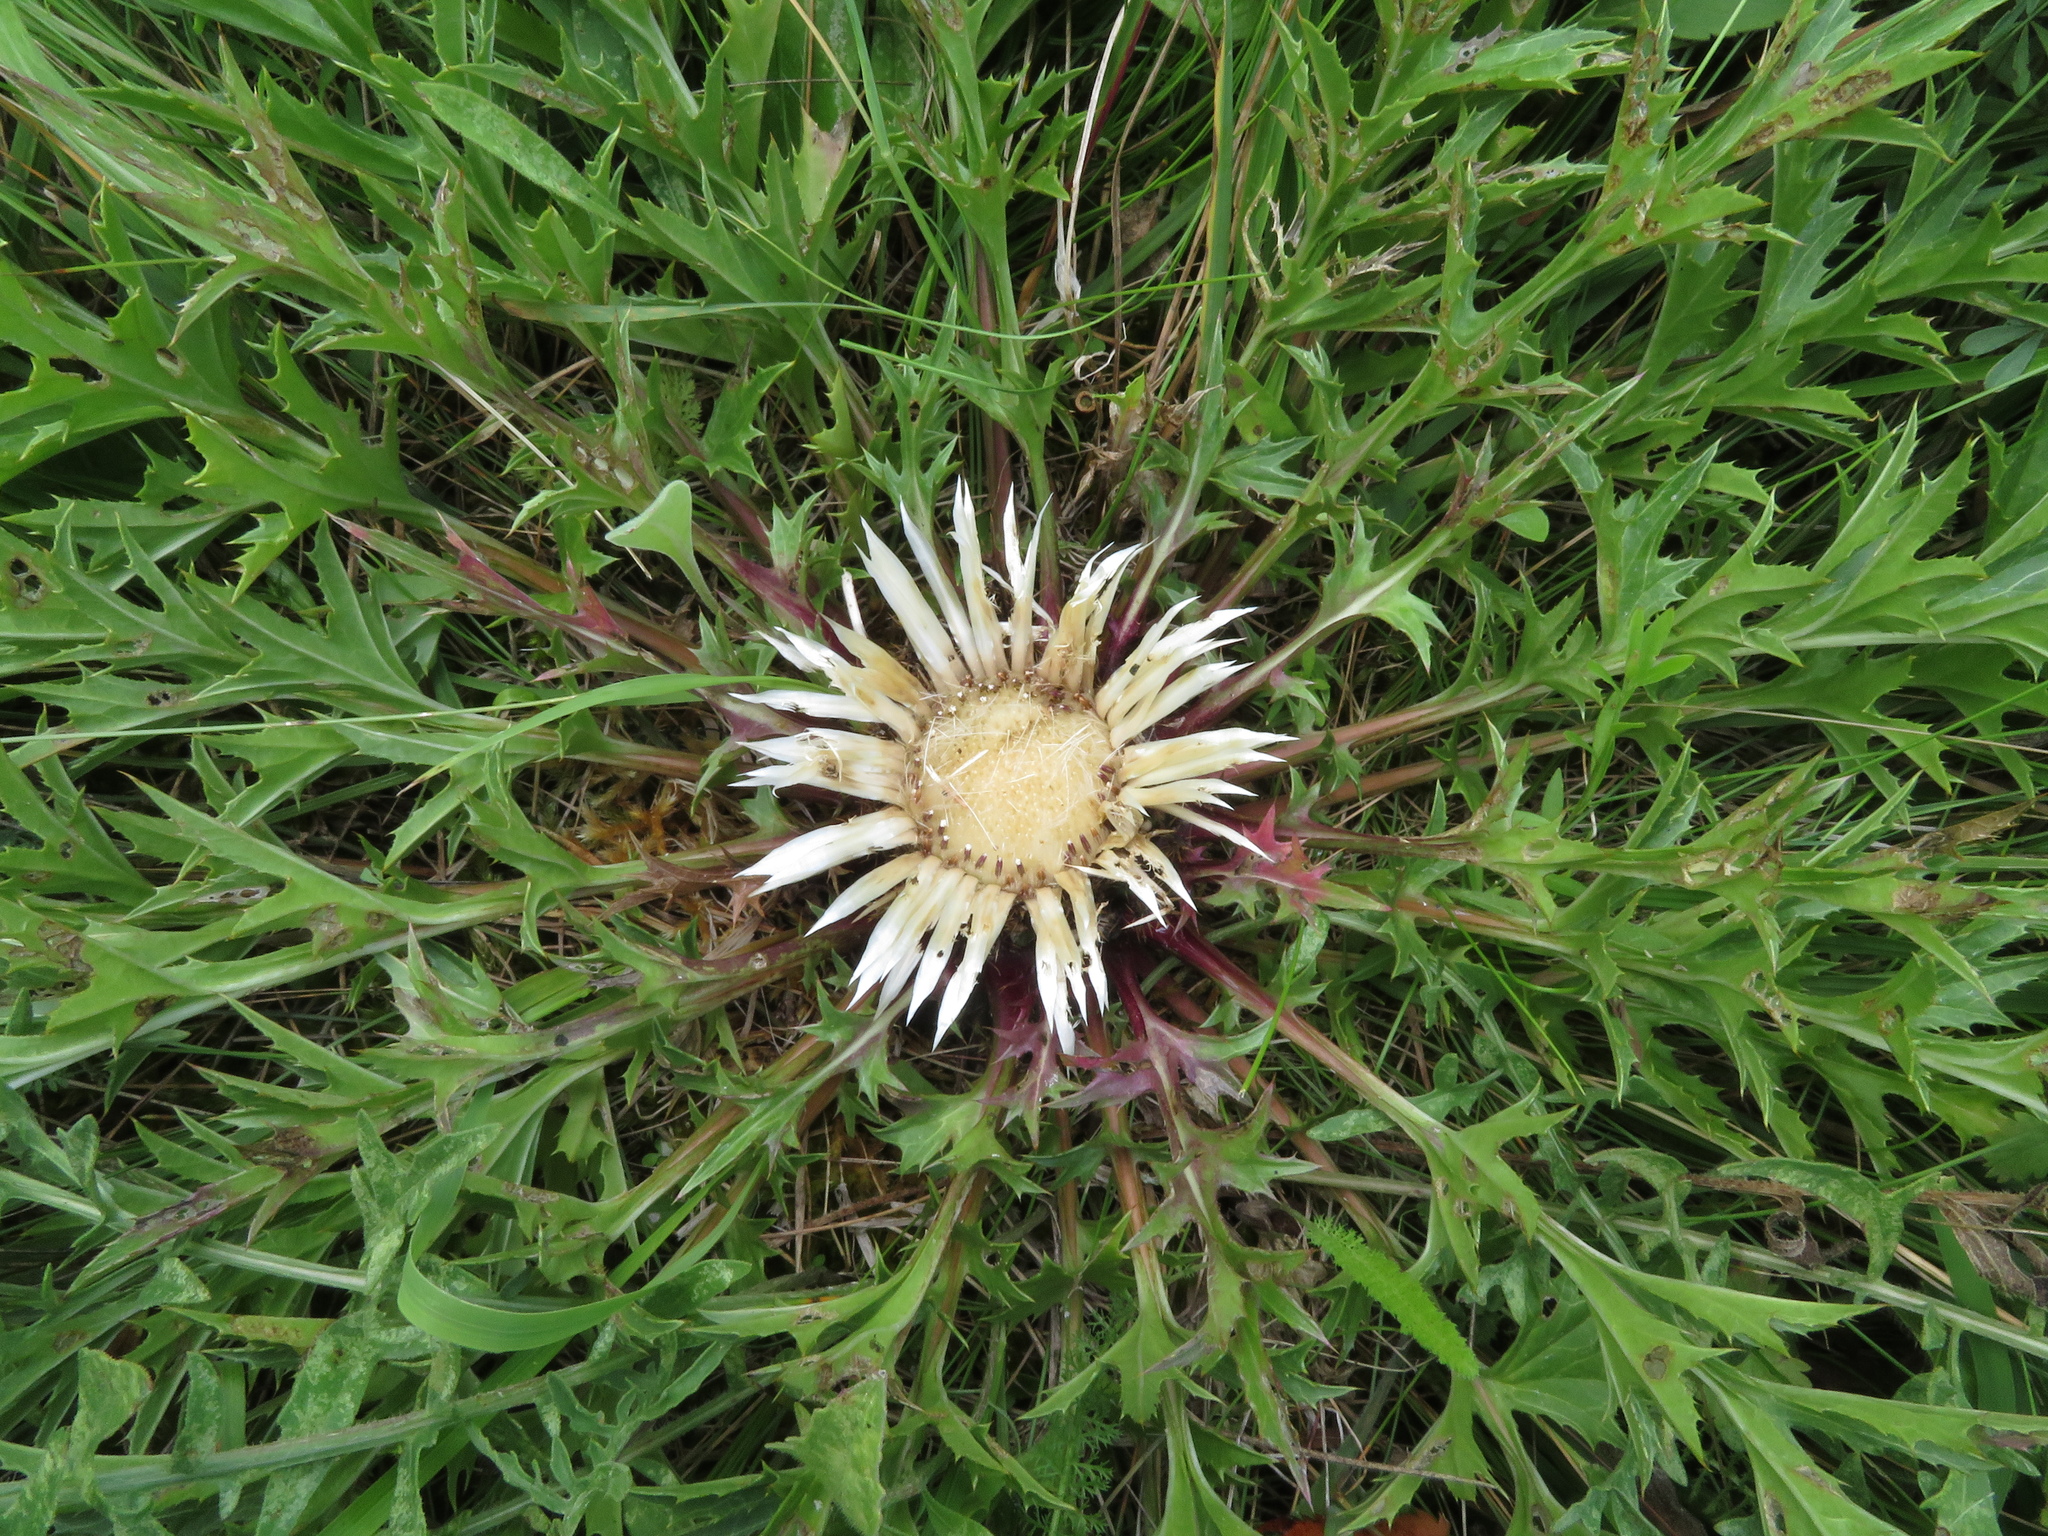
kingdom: Plantae
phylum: Tracheophyta
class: Magnoliopsida
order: Asterales
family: Asteraceae
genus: Carlina
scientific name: Carlina acaulis
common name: Stemless carline thistle
